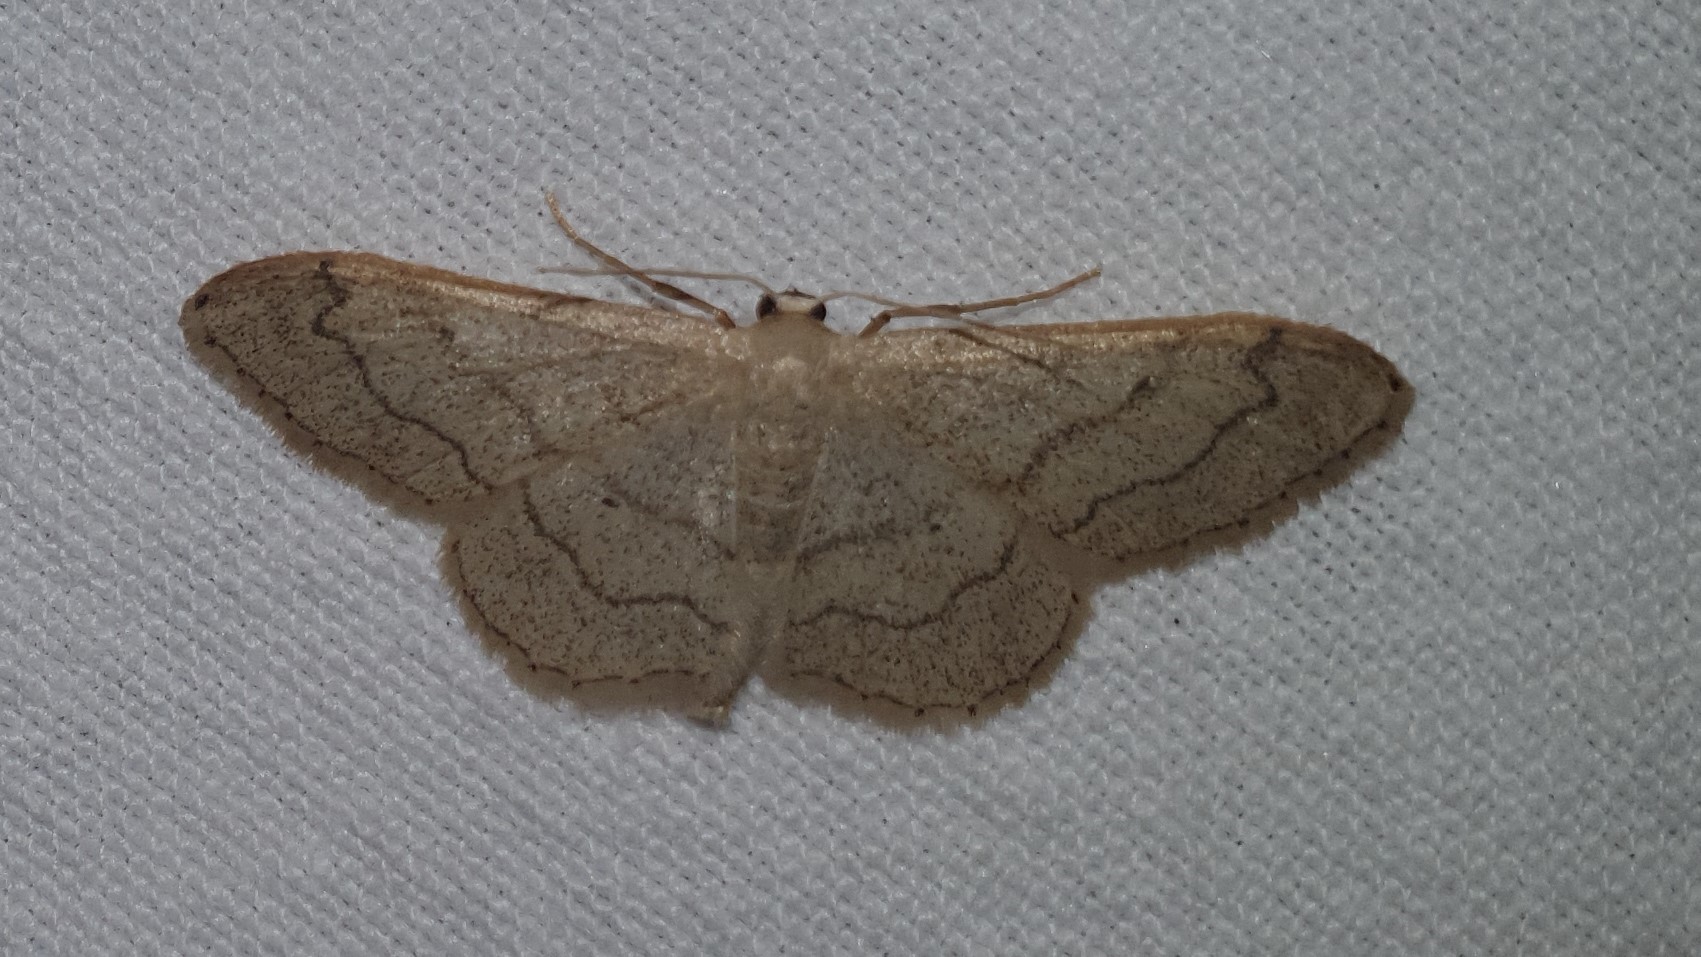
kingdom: Animalia
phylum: Arthropoda
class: Insecta
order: Lepidoptera
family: Geometridae
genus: Idaea
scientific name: Idaea aversata
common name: Riband wave
